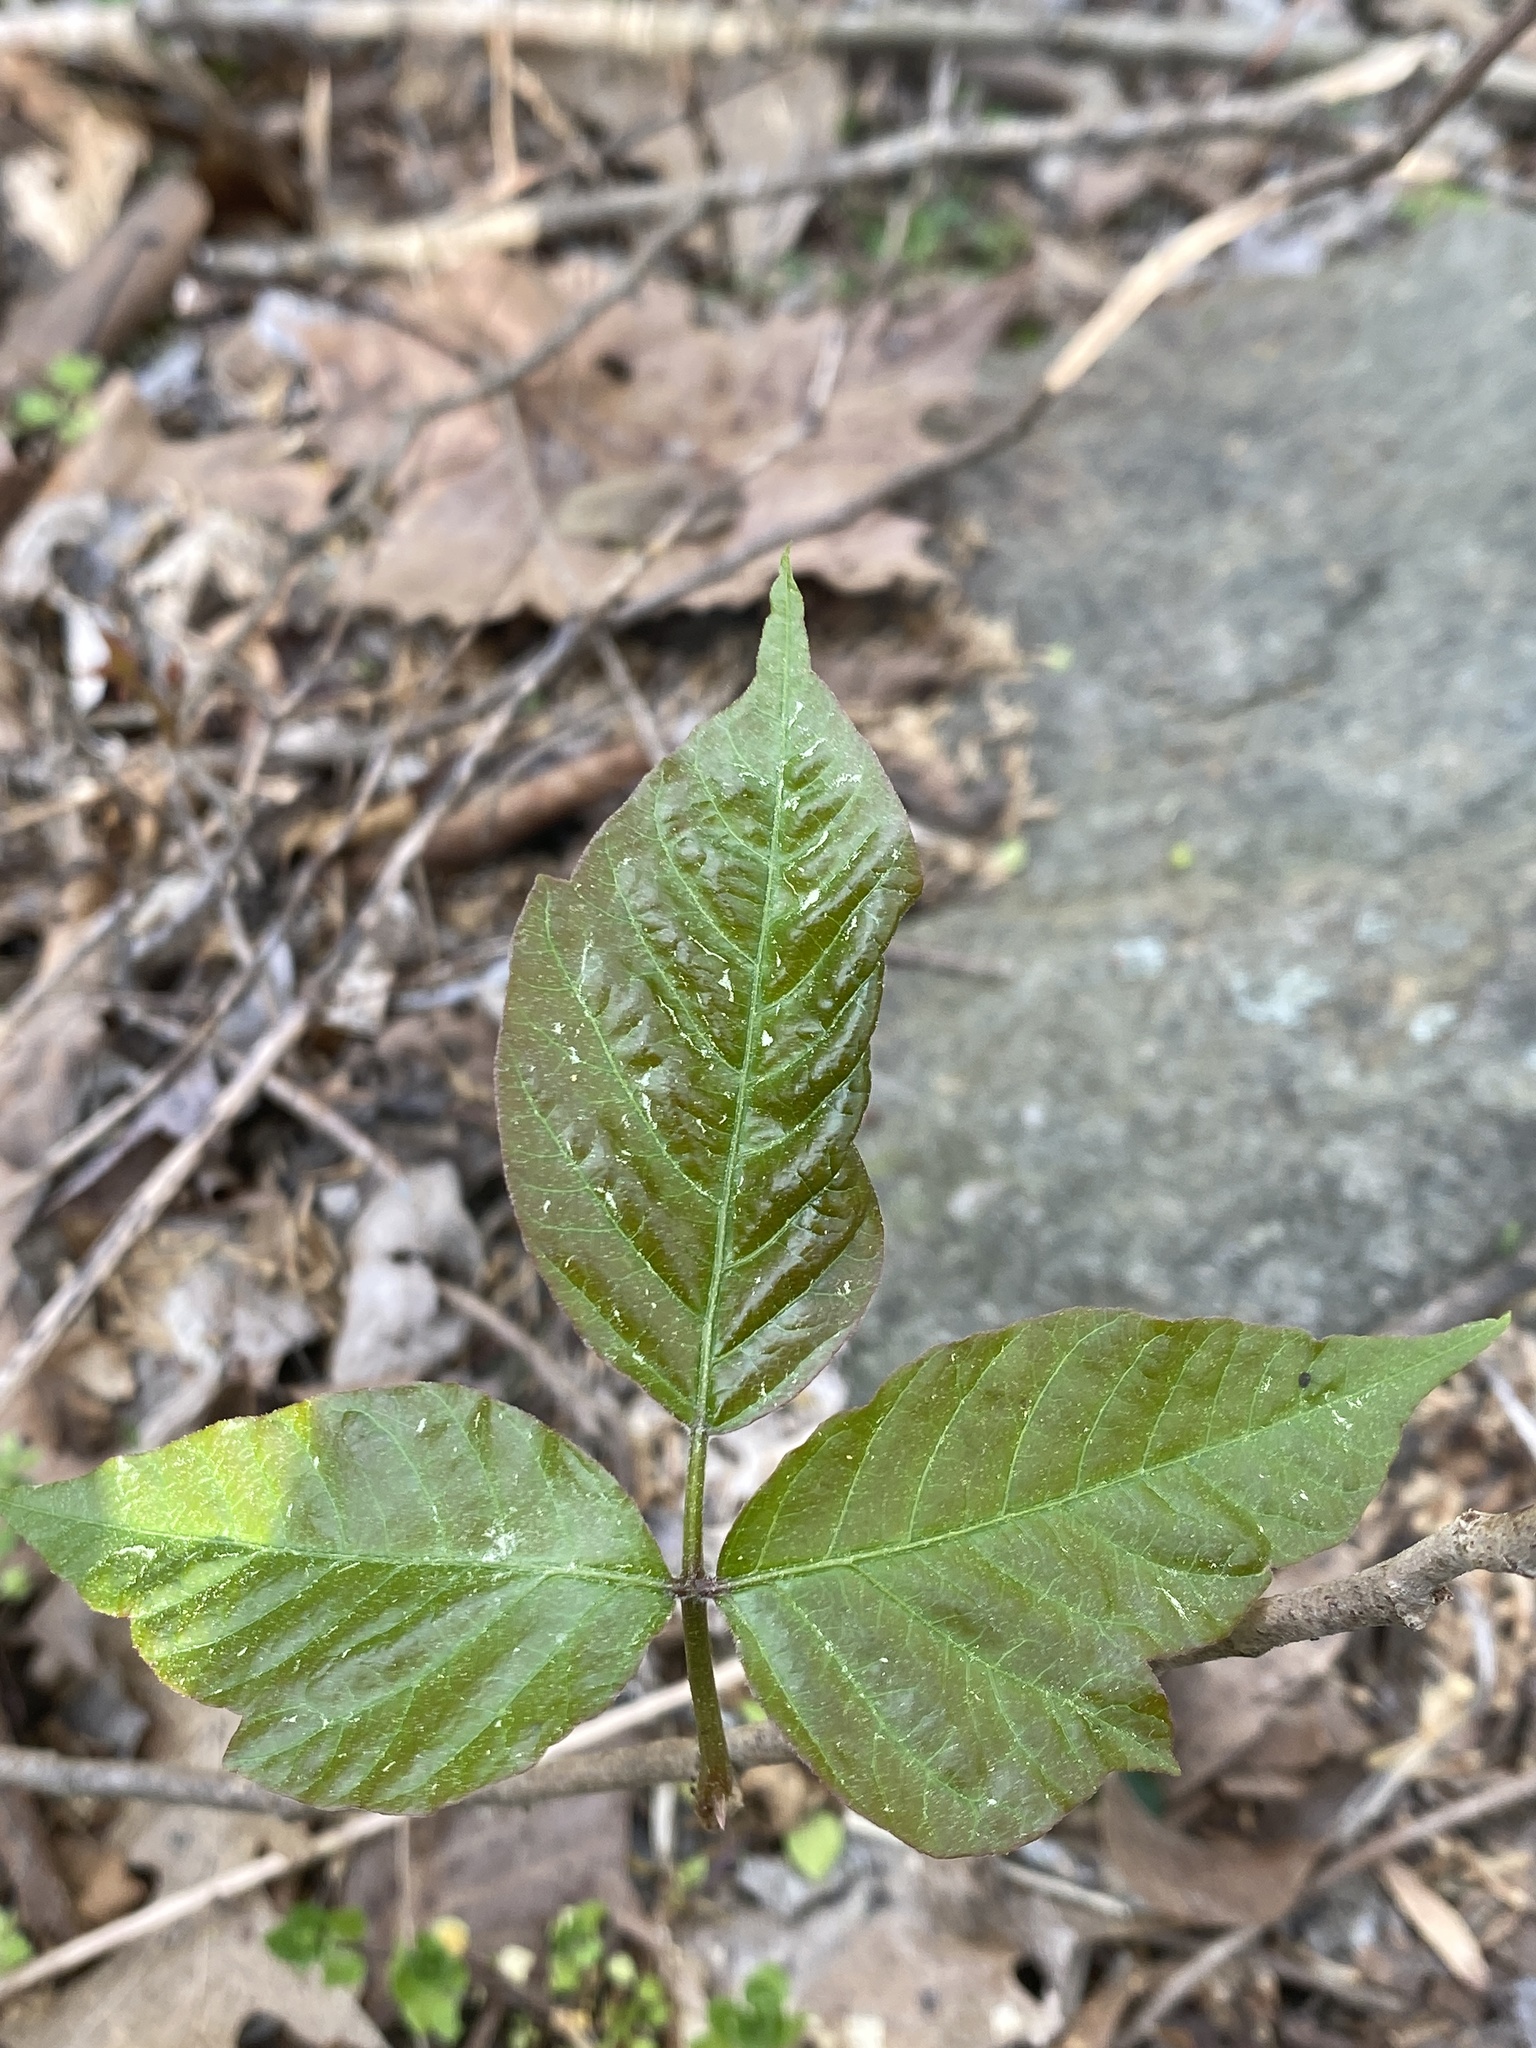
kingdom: Plantae
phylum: Tracheophyta
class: Magnoliopsida
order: Sapindales
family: Anacardiaceae
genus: Toxicodendron
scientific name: Toxicodendron radicans
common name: Poison ivy
